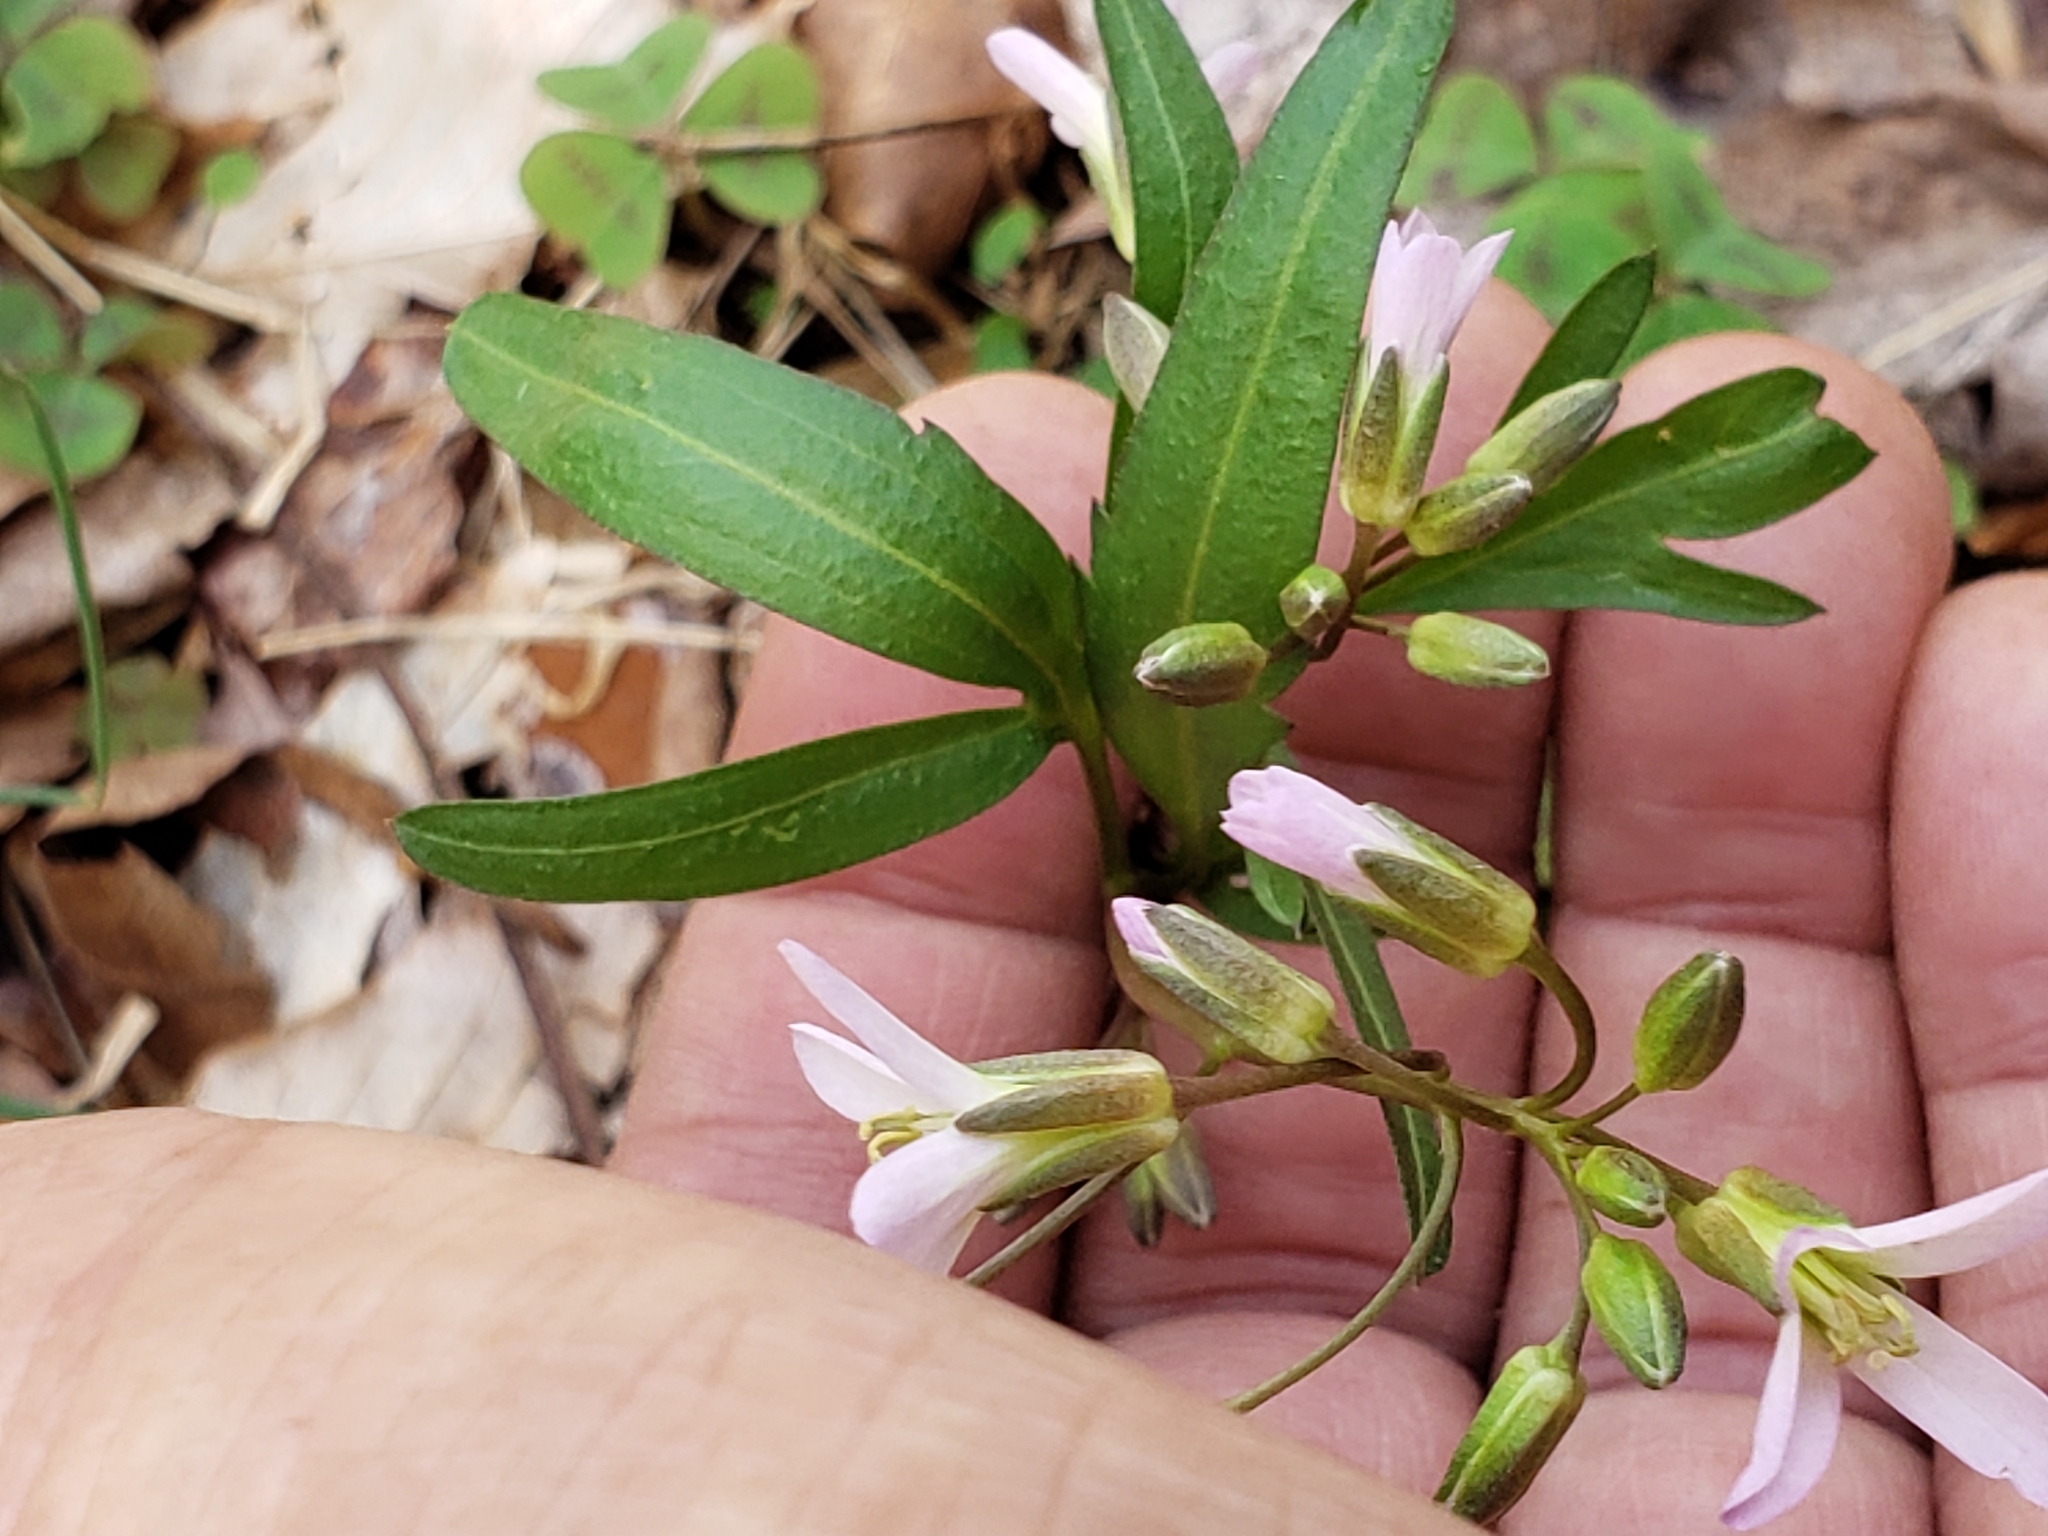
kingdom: Plantae
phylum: Tracheophyta
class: Magnoliopsida
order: Brassicales
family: Brassicaceae
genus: Cardamine
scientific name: Cardamine concatenata
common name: Cut-leaf toothcup
